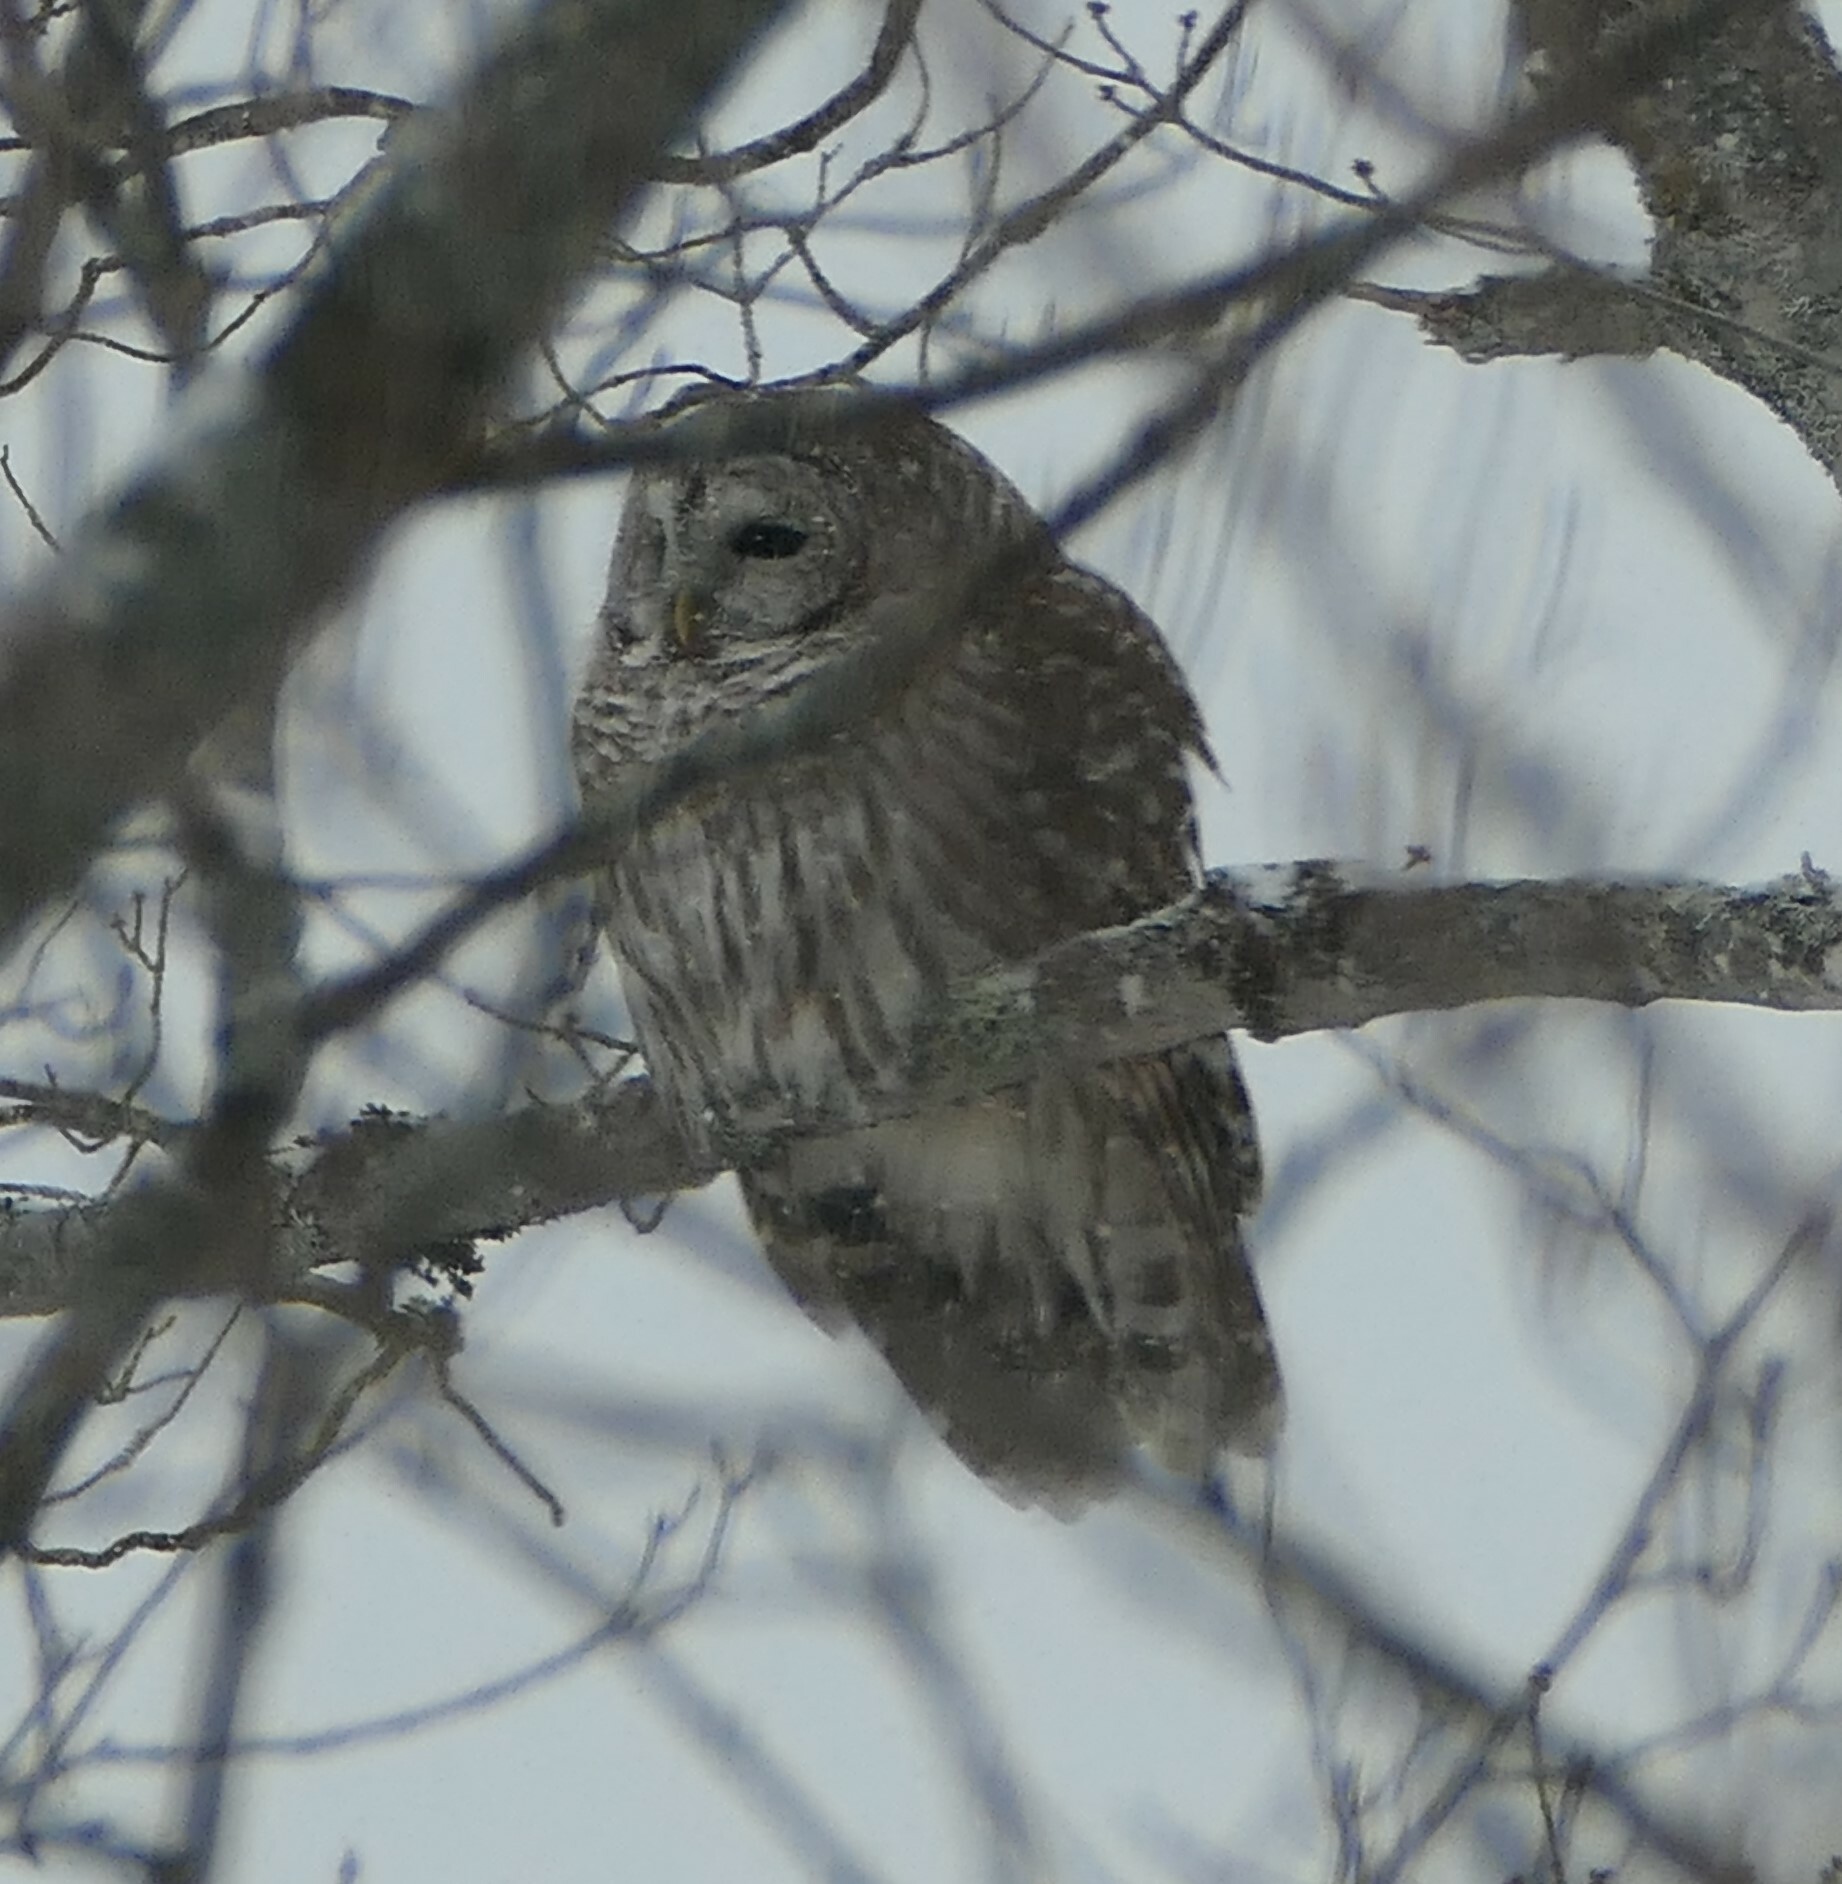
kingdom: Animalia
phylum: Chordata
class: Aves
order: Strigiformes
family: Strigidae
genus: Strix
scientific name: Strix varia
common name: Barred owl
